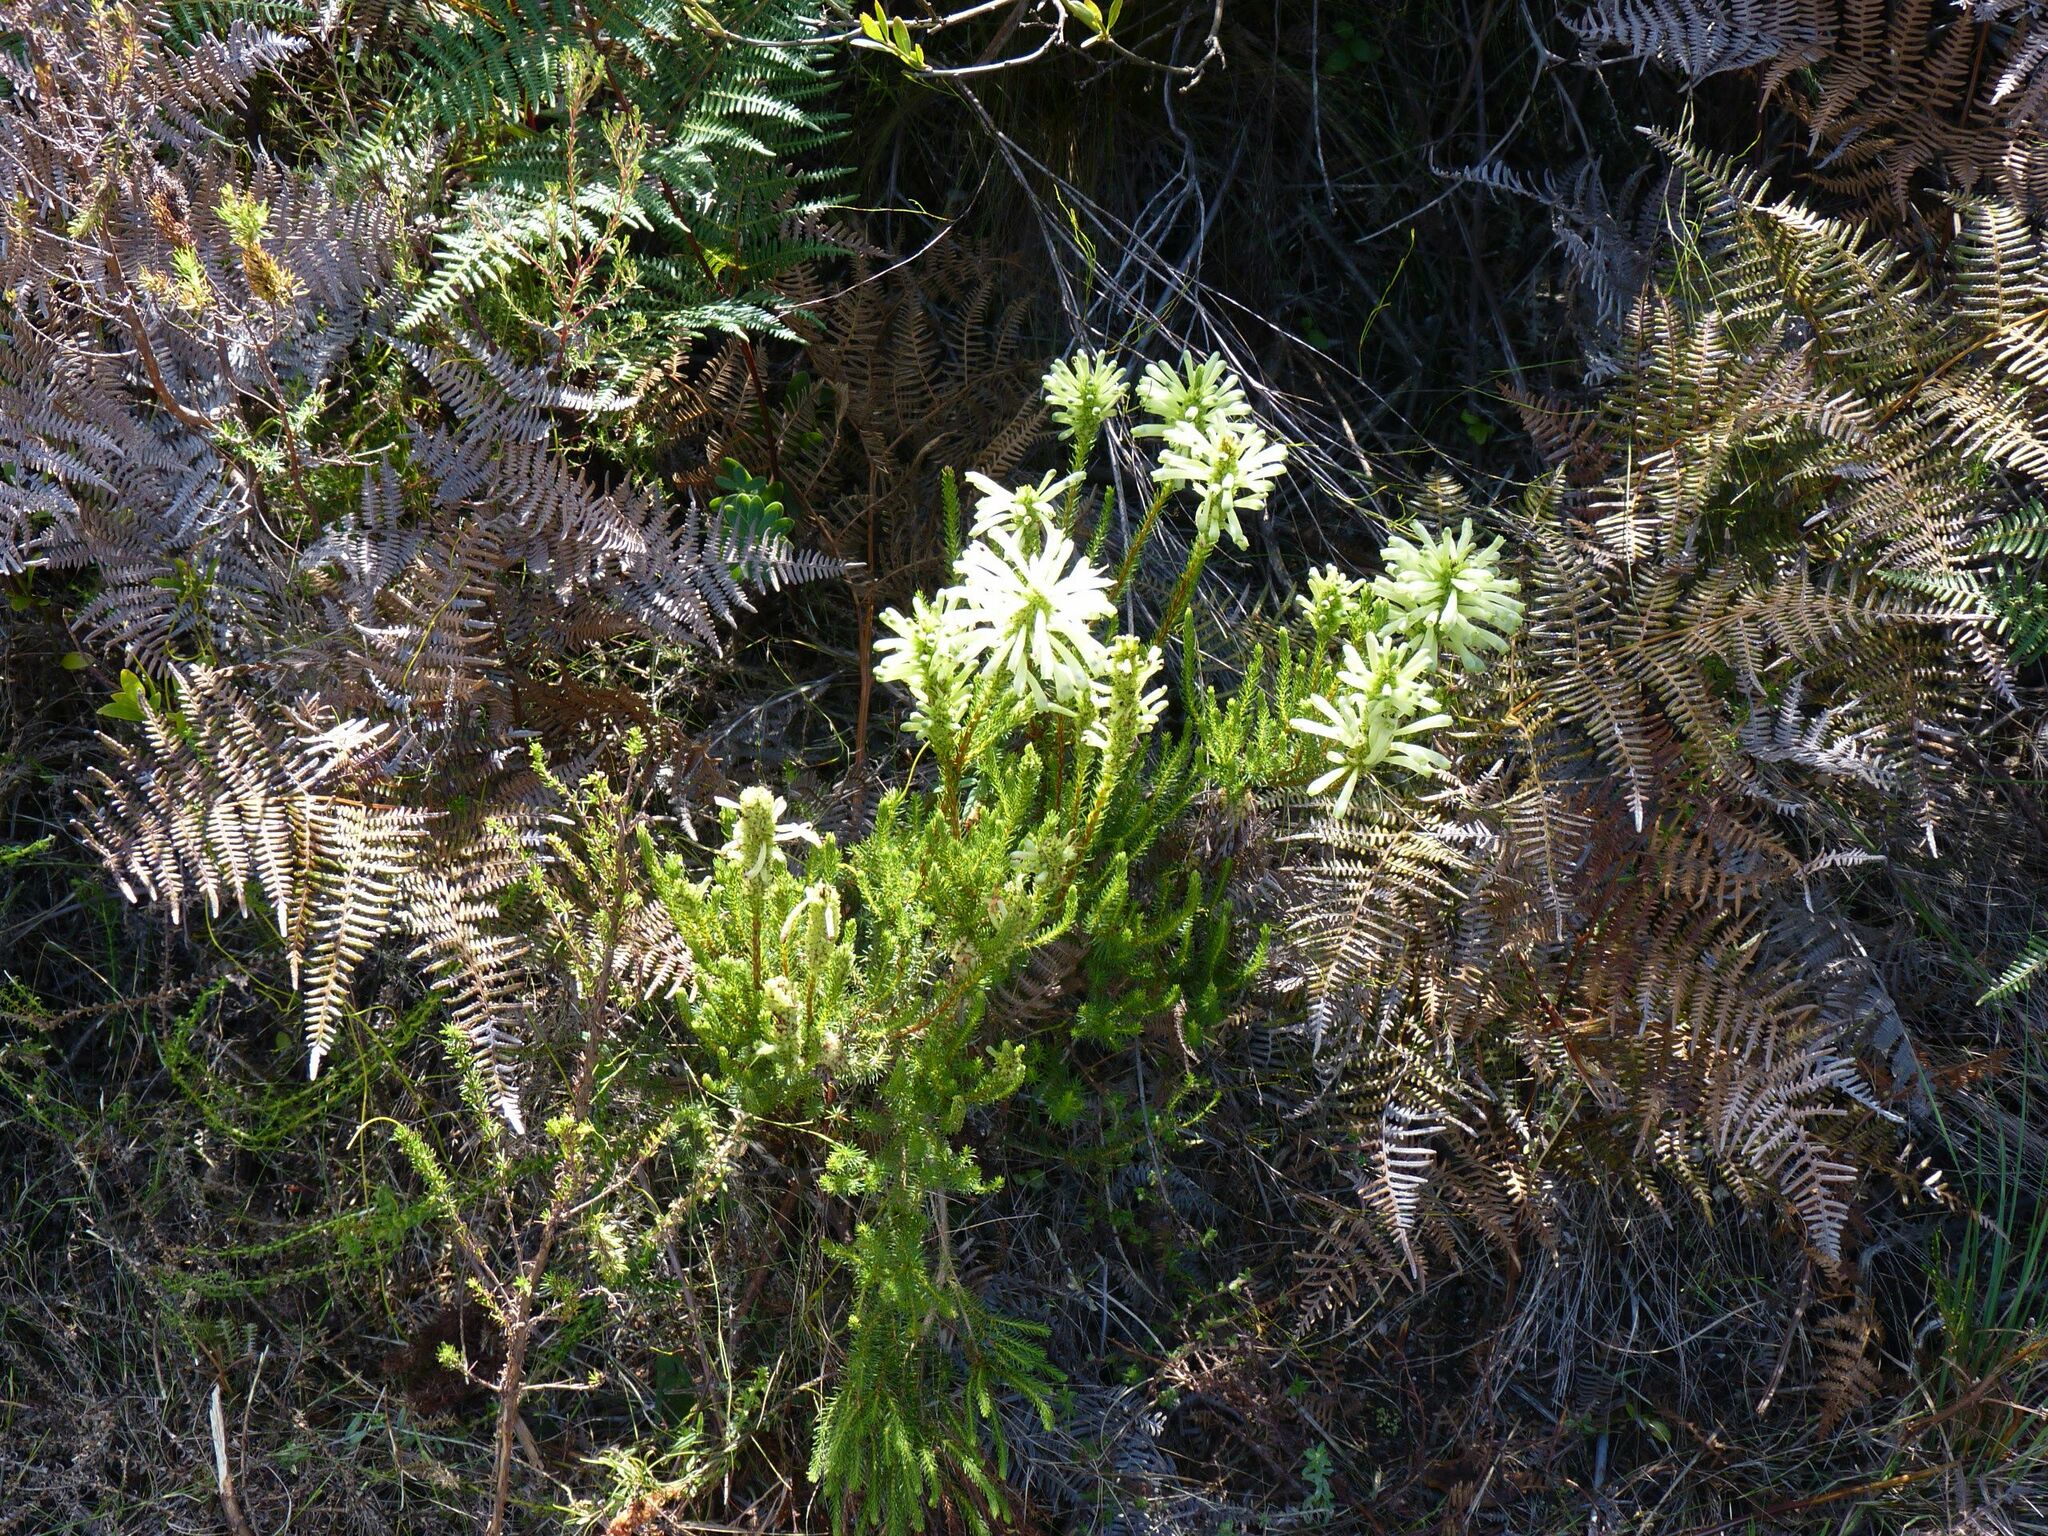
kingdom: Plantae
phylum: Tracheophyta
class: Magnoliopsida
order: Ericales
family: Ericaceae
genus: Erica
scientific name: Erica sessiliflora
